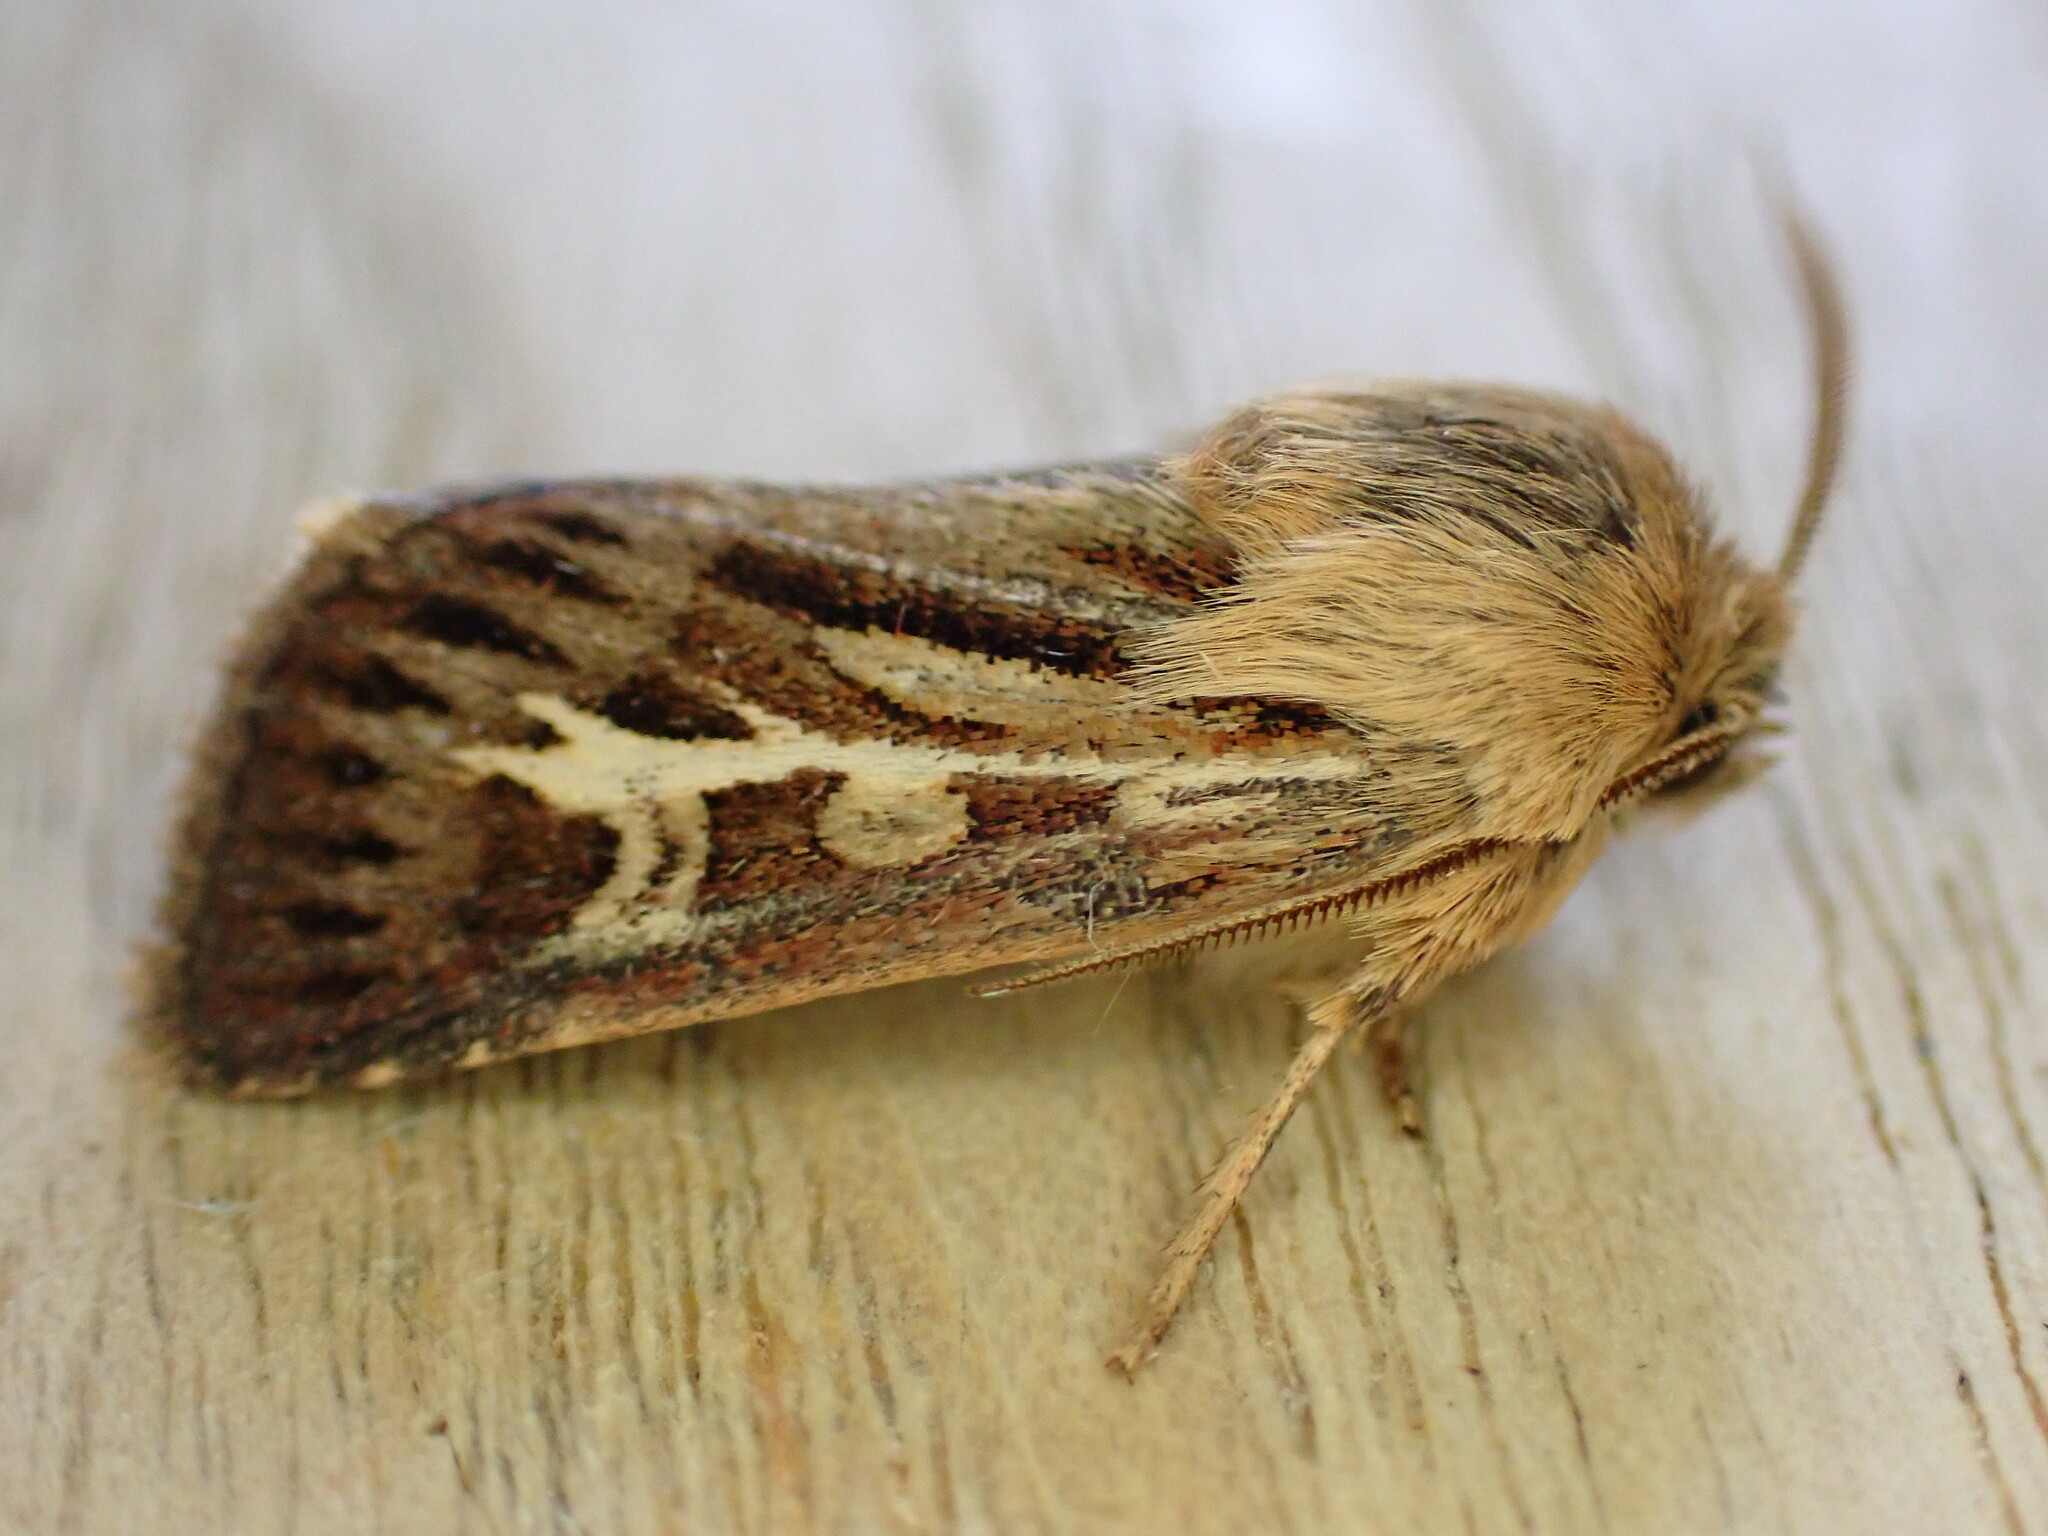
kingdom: Animalia
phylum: Arthropoda
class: Insecta
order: Lepidoptera
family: Noctuidae
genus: Cerapteryx
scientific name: Cerapteryx graminis
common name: Antler moth
